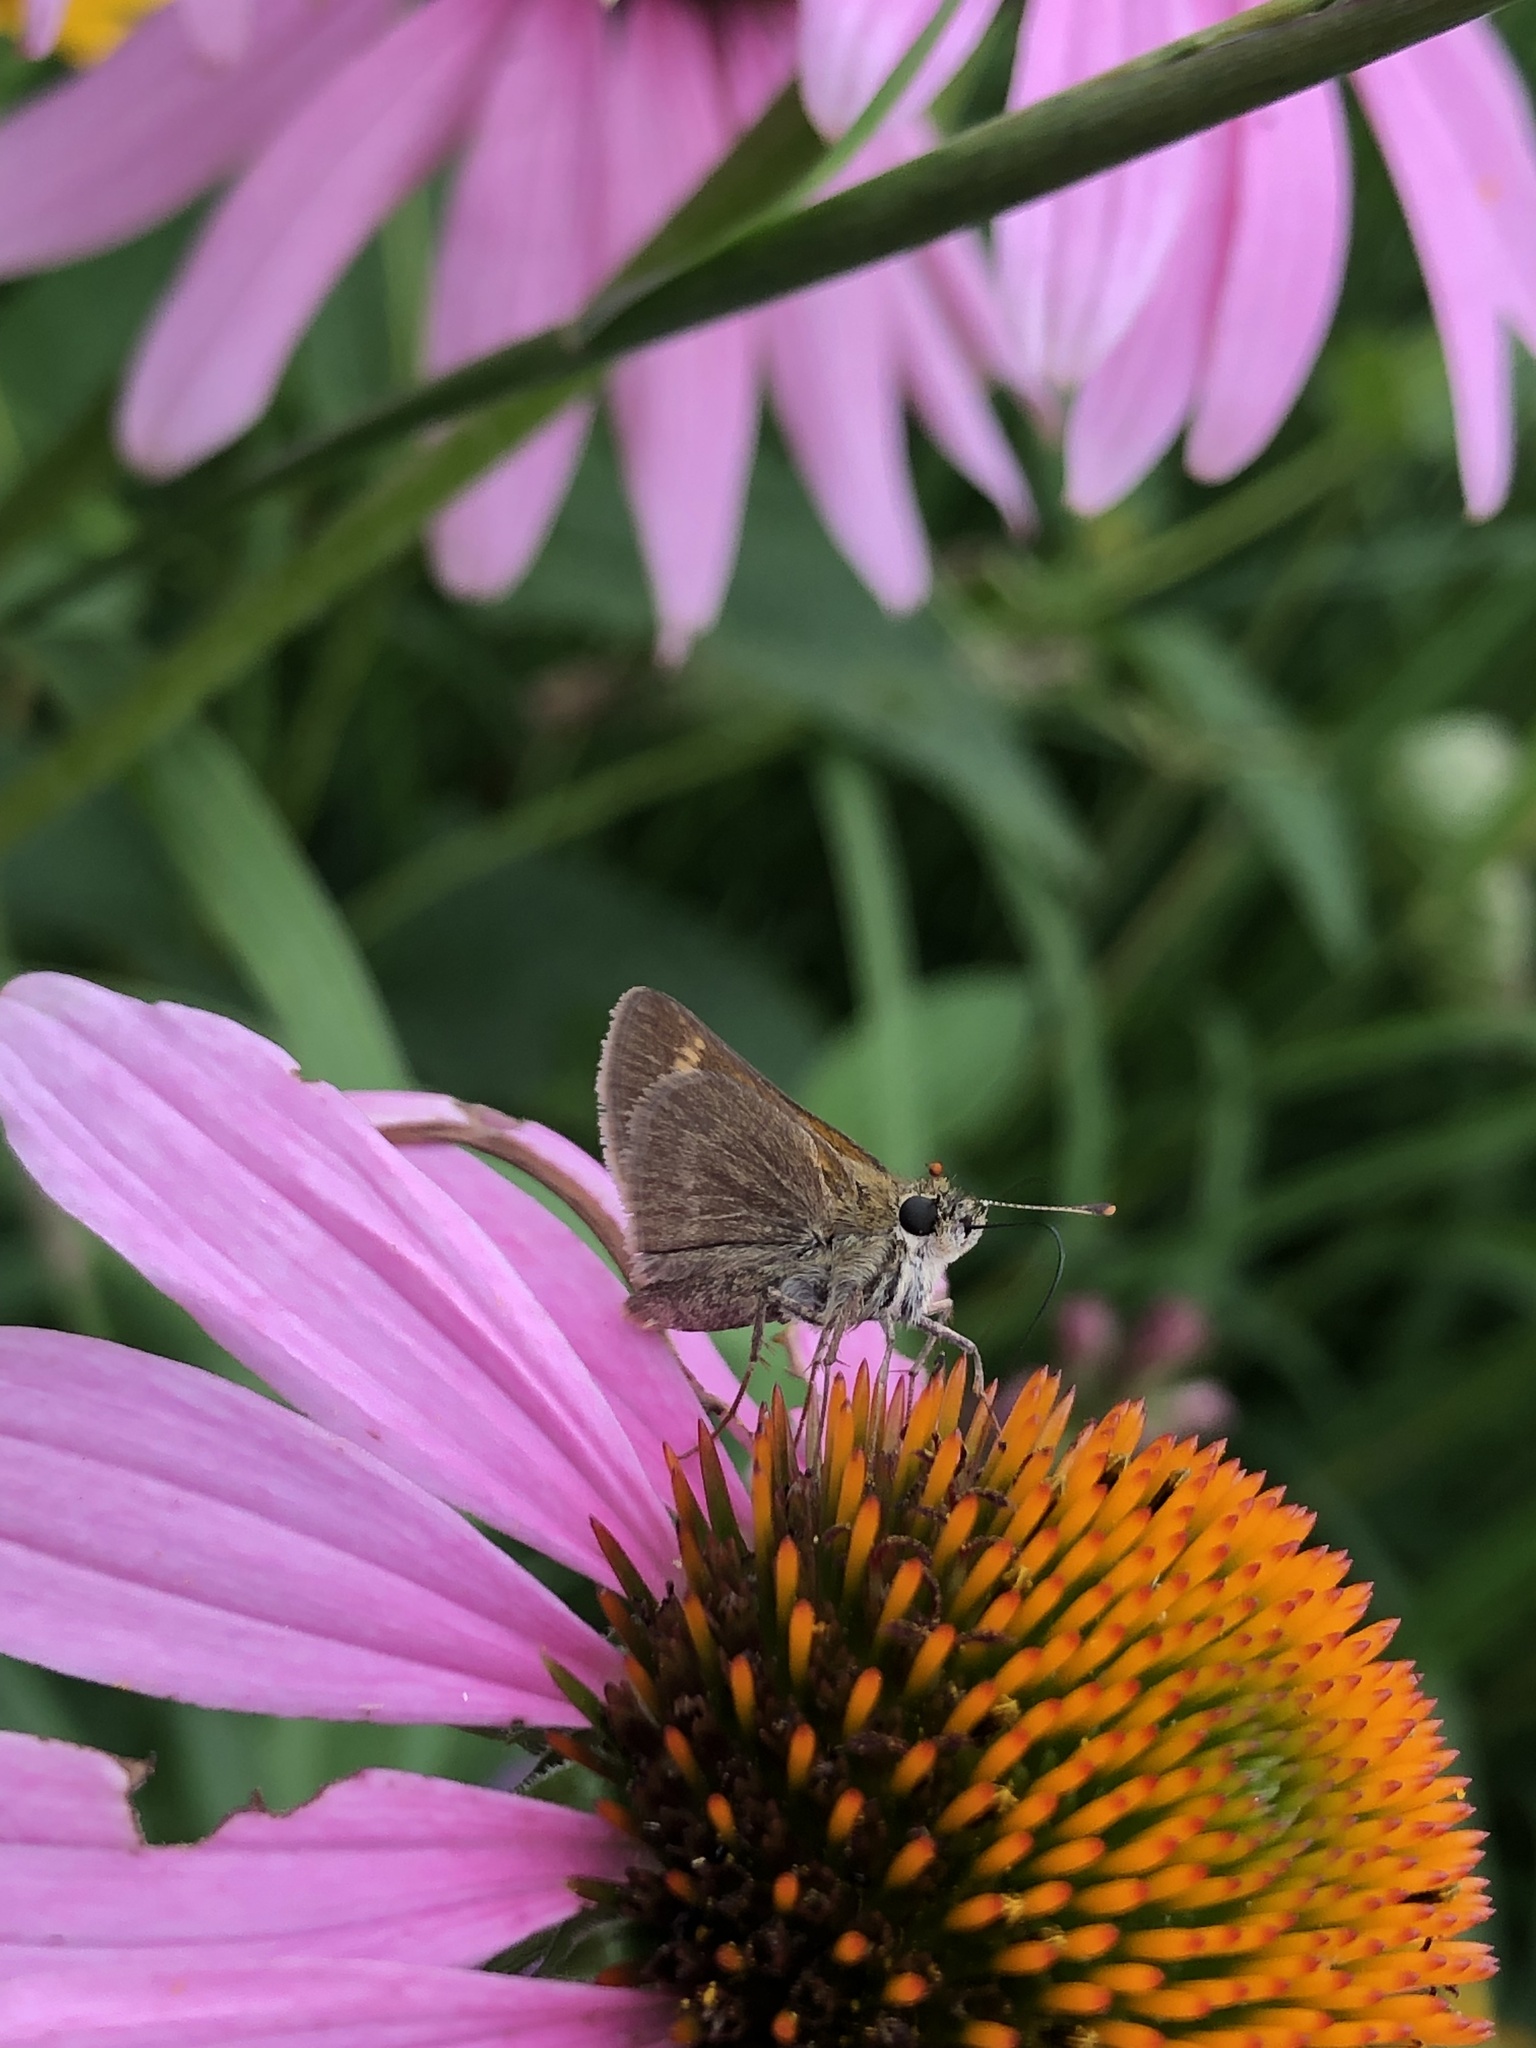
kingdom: Animalia
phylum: Arthropoda
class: Insecta
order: Lepidoptera
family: Hesperiidae
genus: Polites
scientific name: Polites themistocles
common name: Tawny-edged skipper
